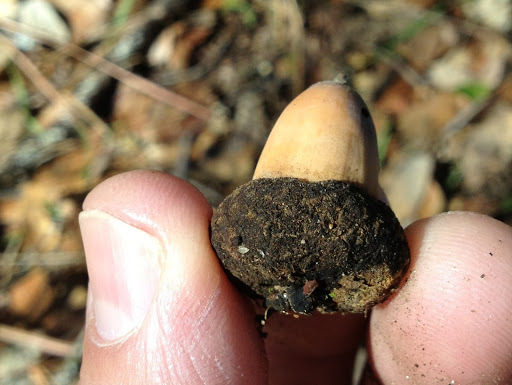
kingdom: Plantae
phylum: Tracheophyta
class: Magnoliopsida
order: Fagales
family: Fagaceae
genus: Quercus
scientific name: Quercus chrysolepis
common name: Canyon live oak
